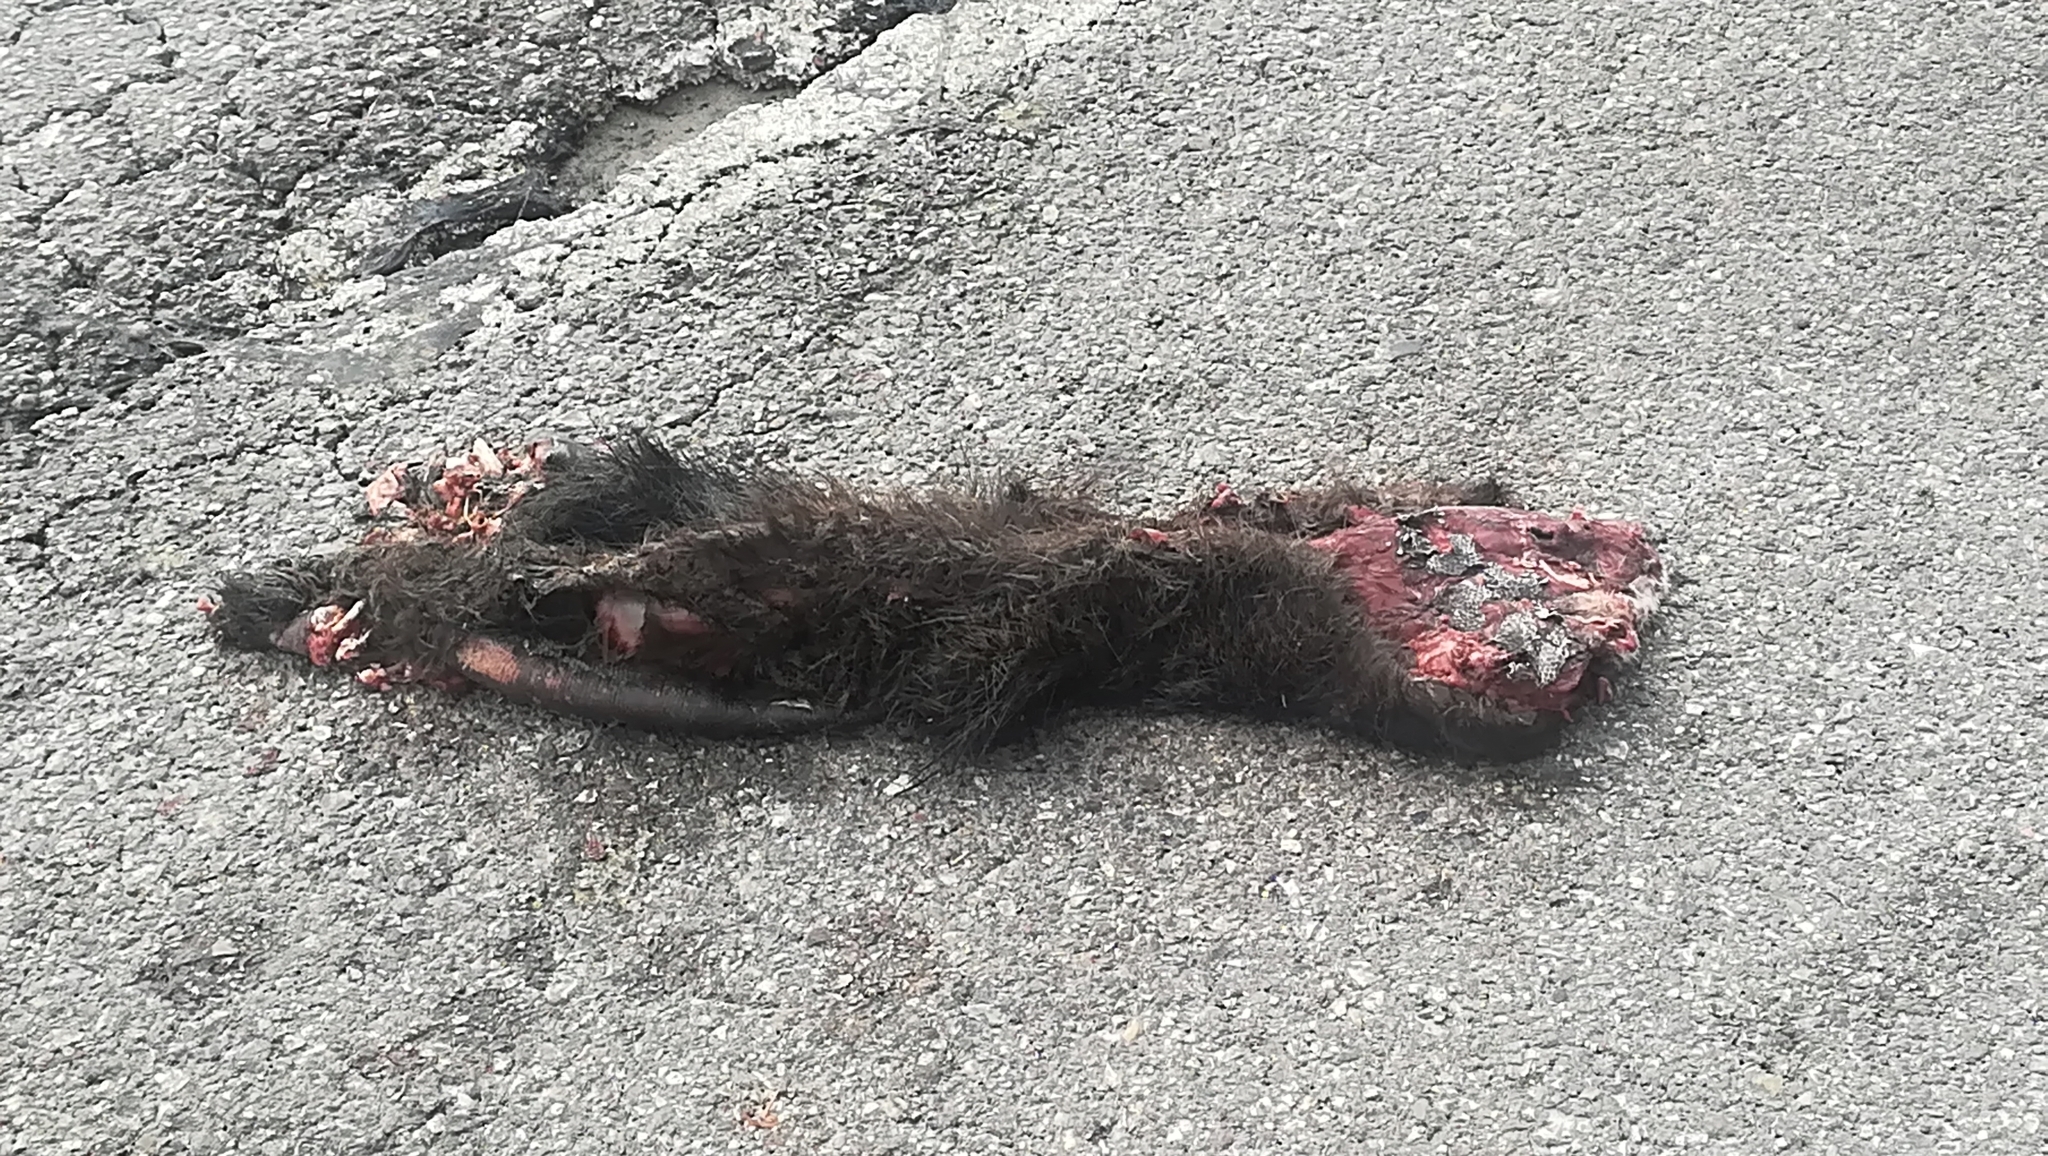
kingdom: Animalia
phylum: Chordata
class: Mammalia
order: Rodentia
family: Myocastoridae
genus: Myocastor
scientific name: Myocastor coypus
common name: Coypu
